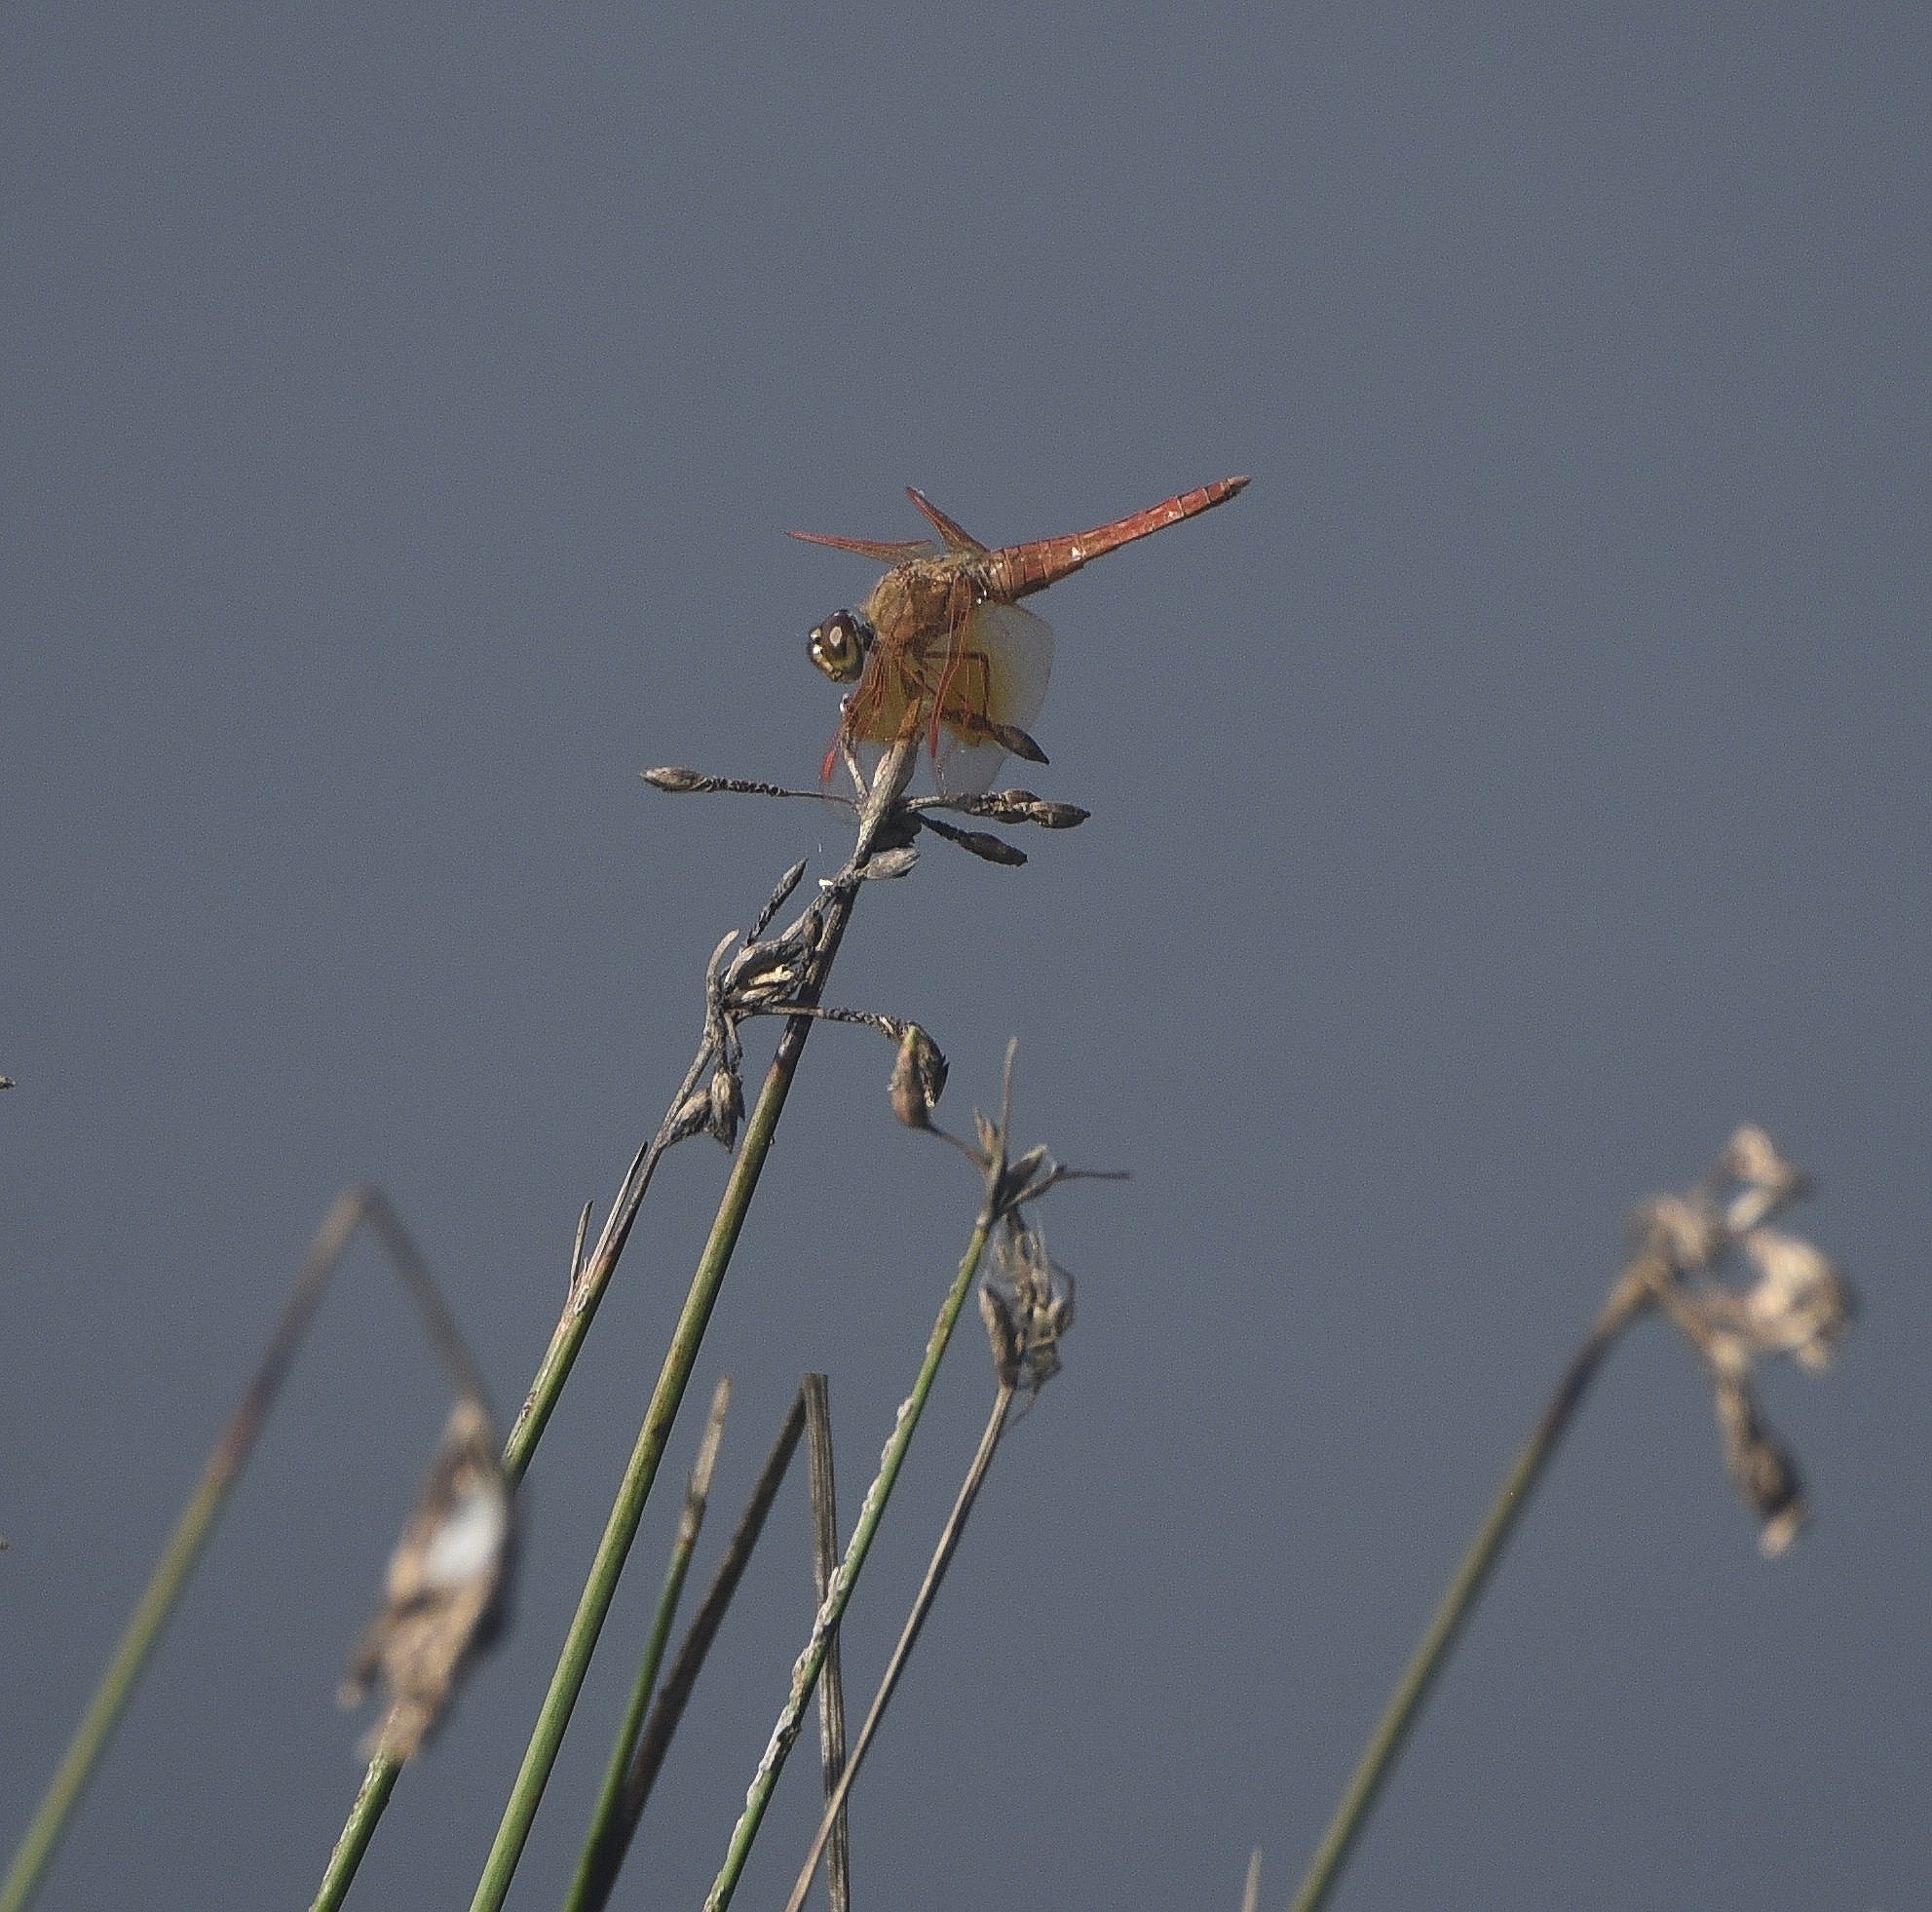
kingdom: Animalia
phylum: Arthropoda
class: Insecta
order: Odonata
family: Libellulidae
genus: Brachythemis
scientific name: Brachythemis contaminata
